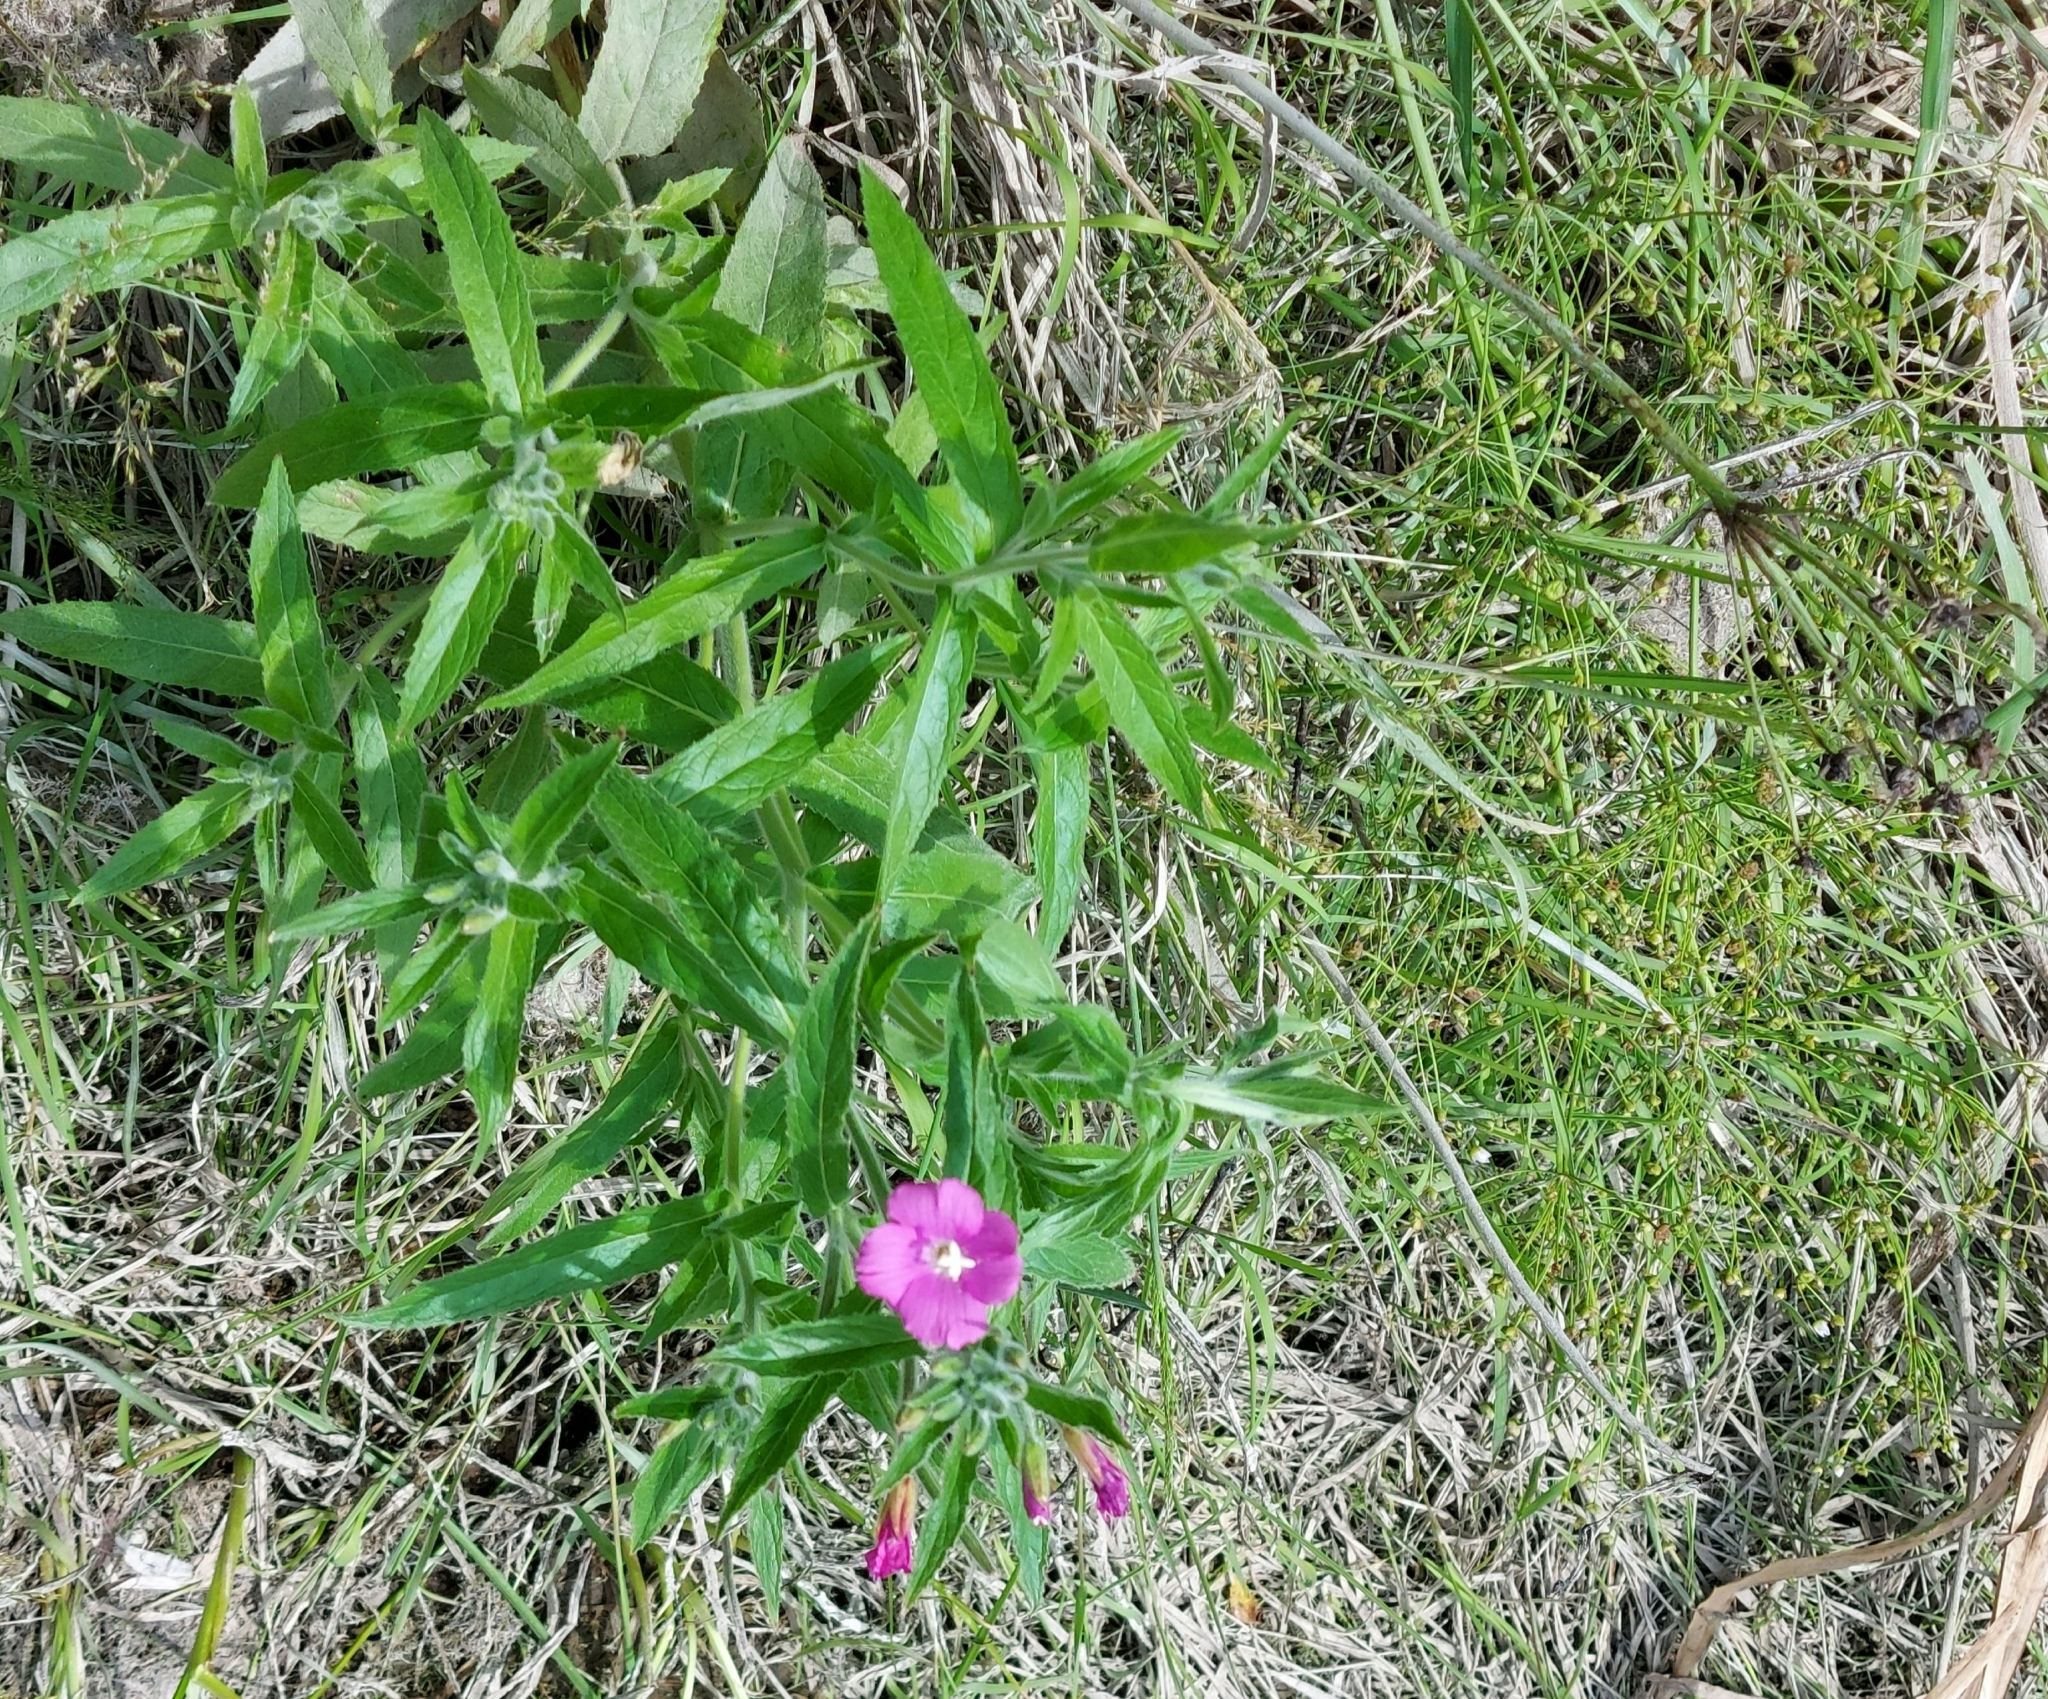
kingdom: Plantae
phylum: Tracheophyta
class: Magnoliopsida
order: Myrtales
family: Onagraceae
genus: Epilobium
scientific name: Epilobium hirsutum
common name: Great willowherb
